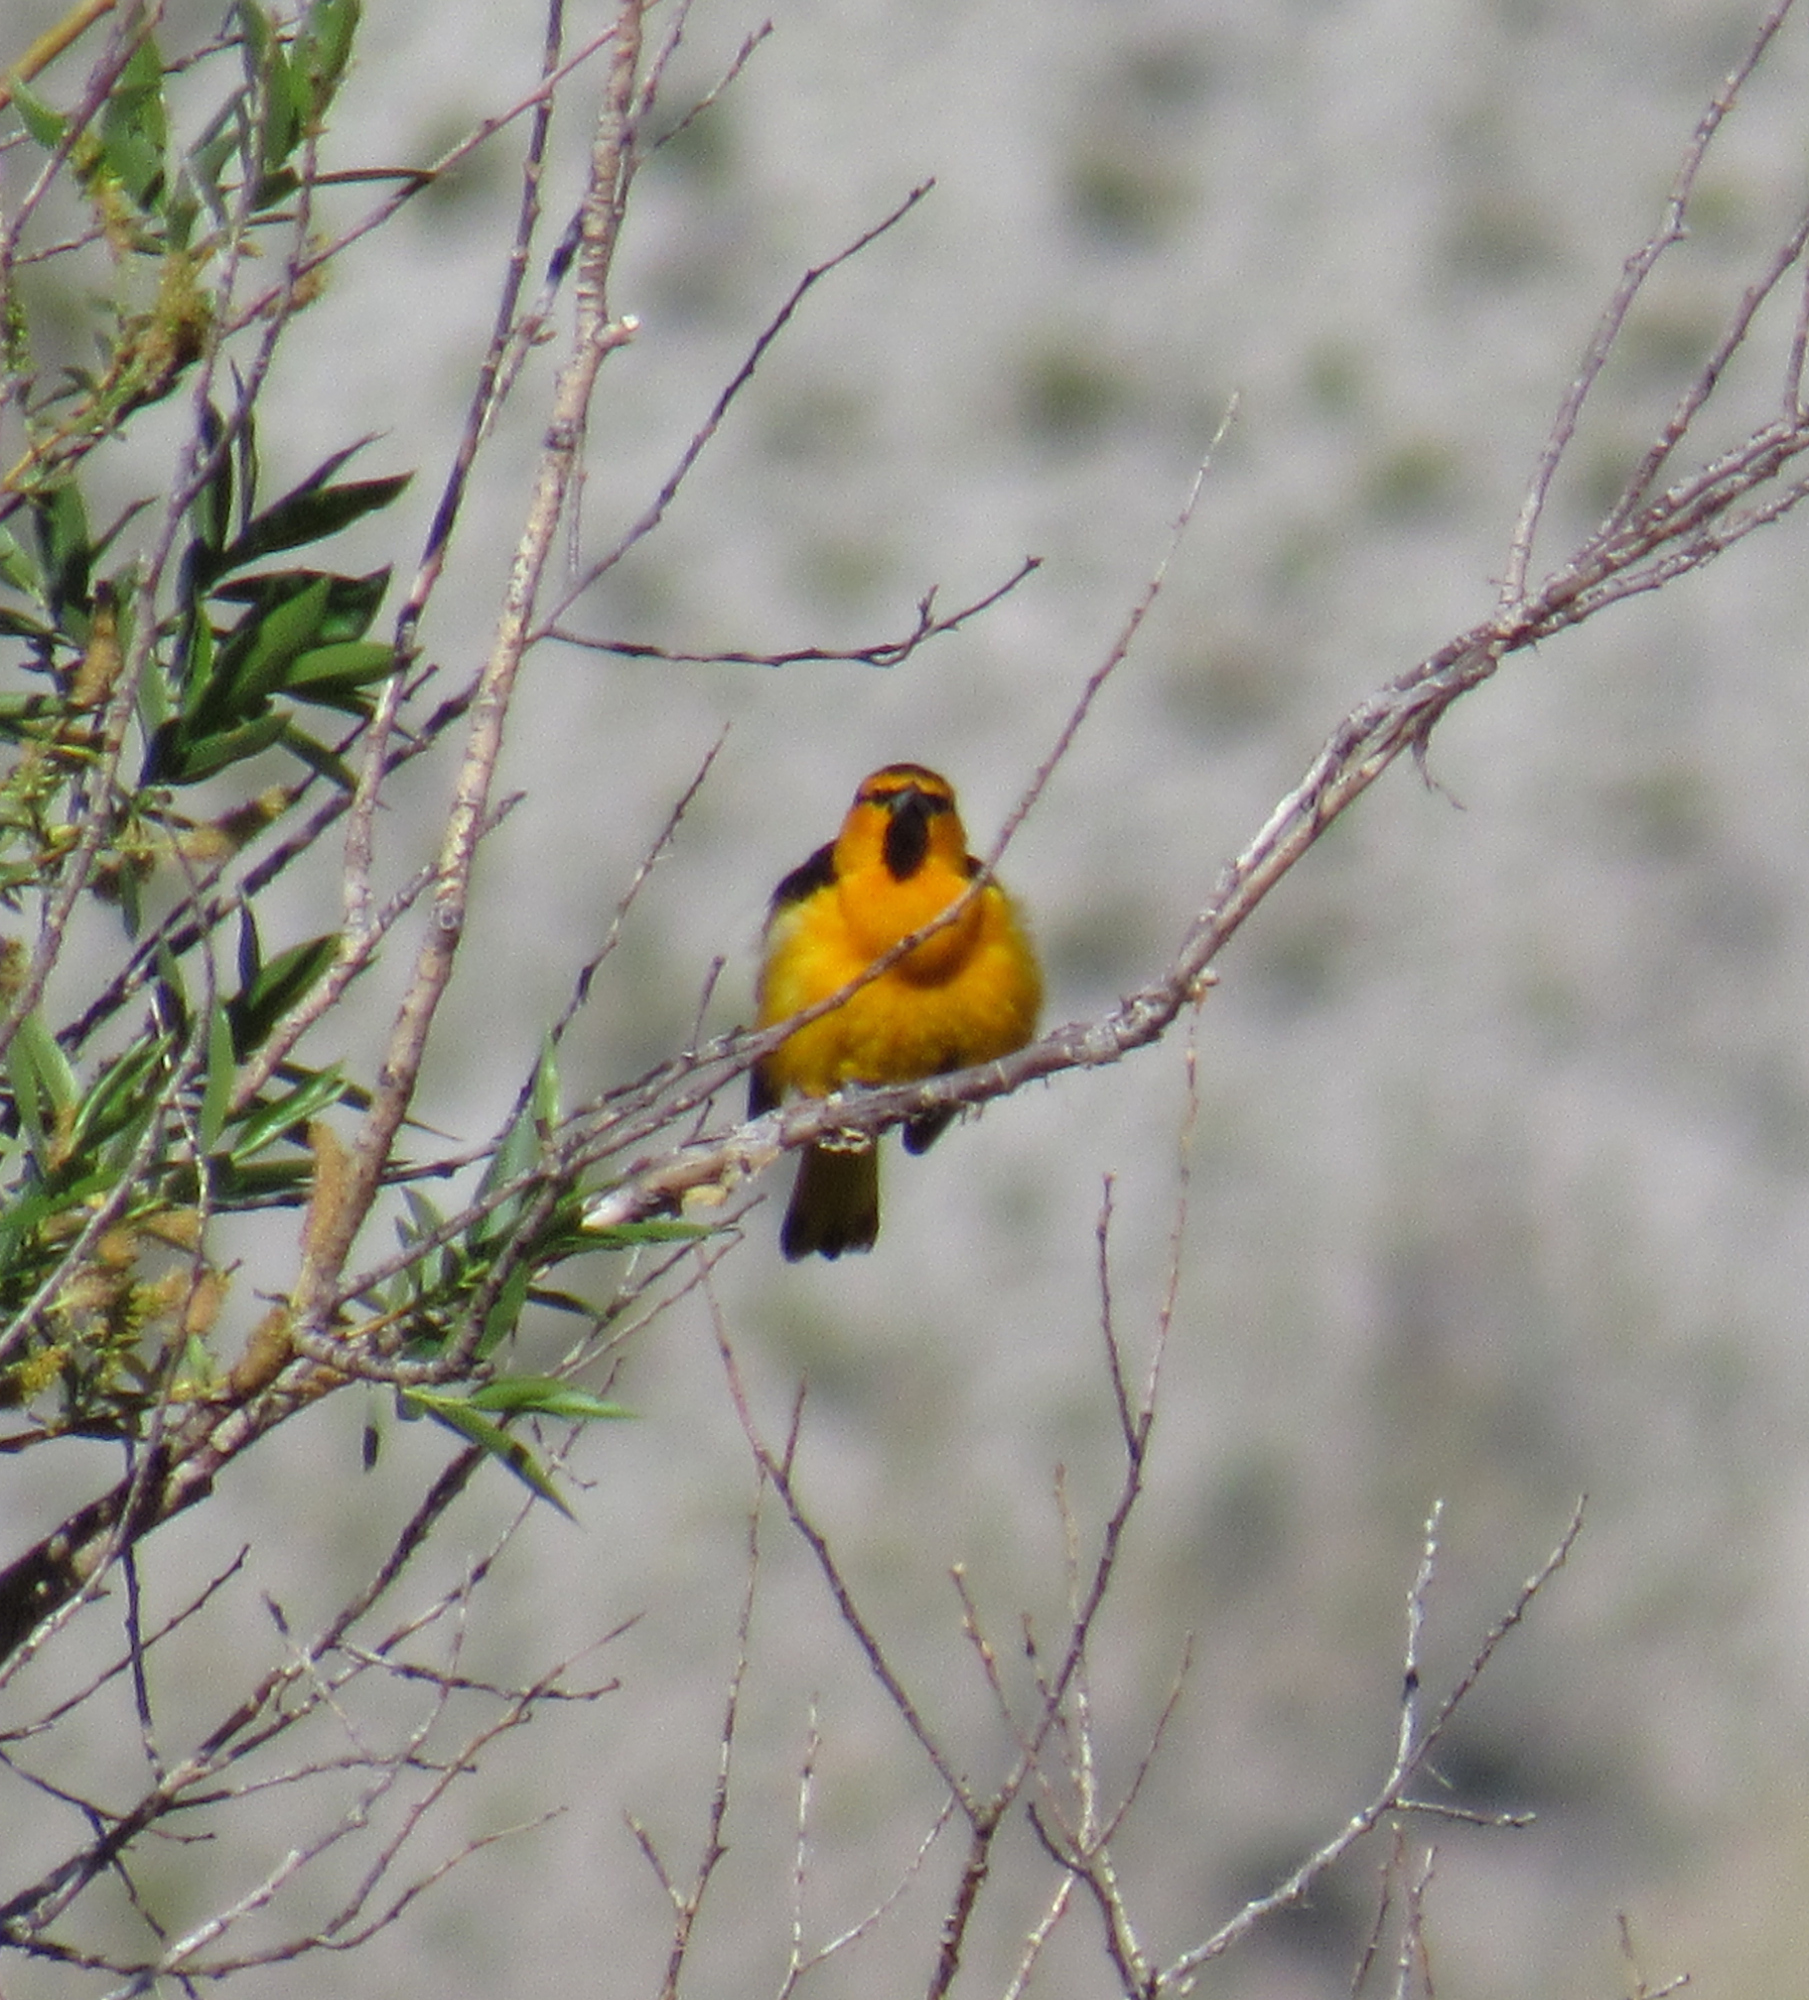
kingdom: Animalia
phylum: Chordata
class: Aves
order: Passeriformes
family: Icteridae
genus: Icterus
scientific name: Icterus bullockii
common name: Bullock's oriole
